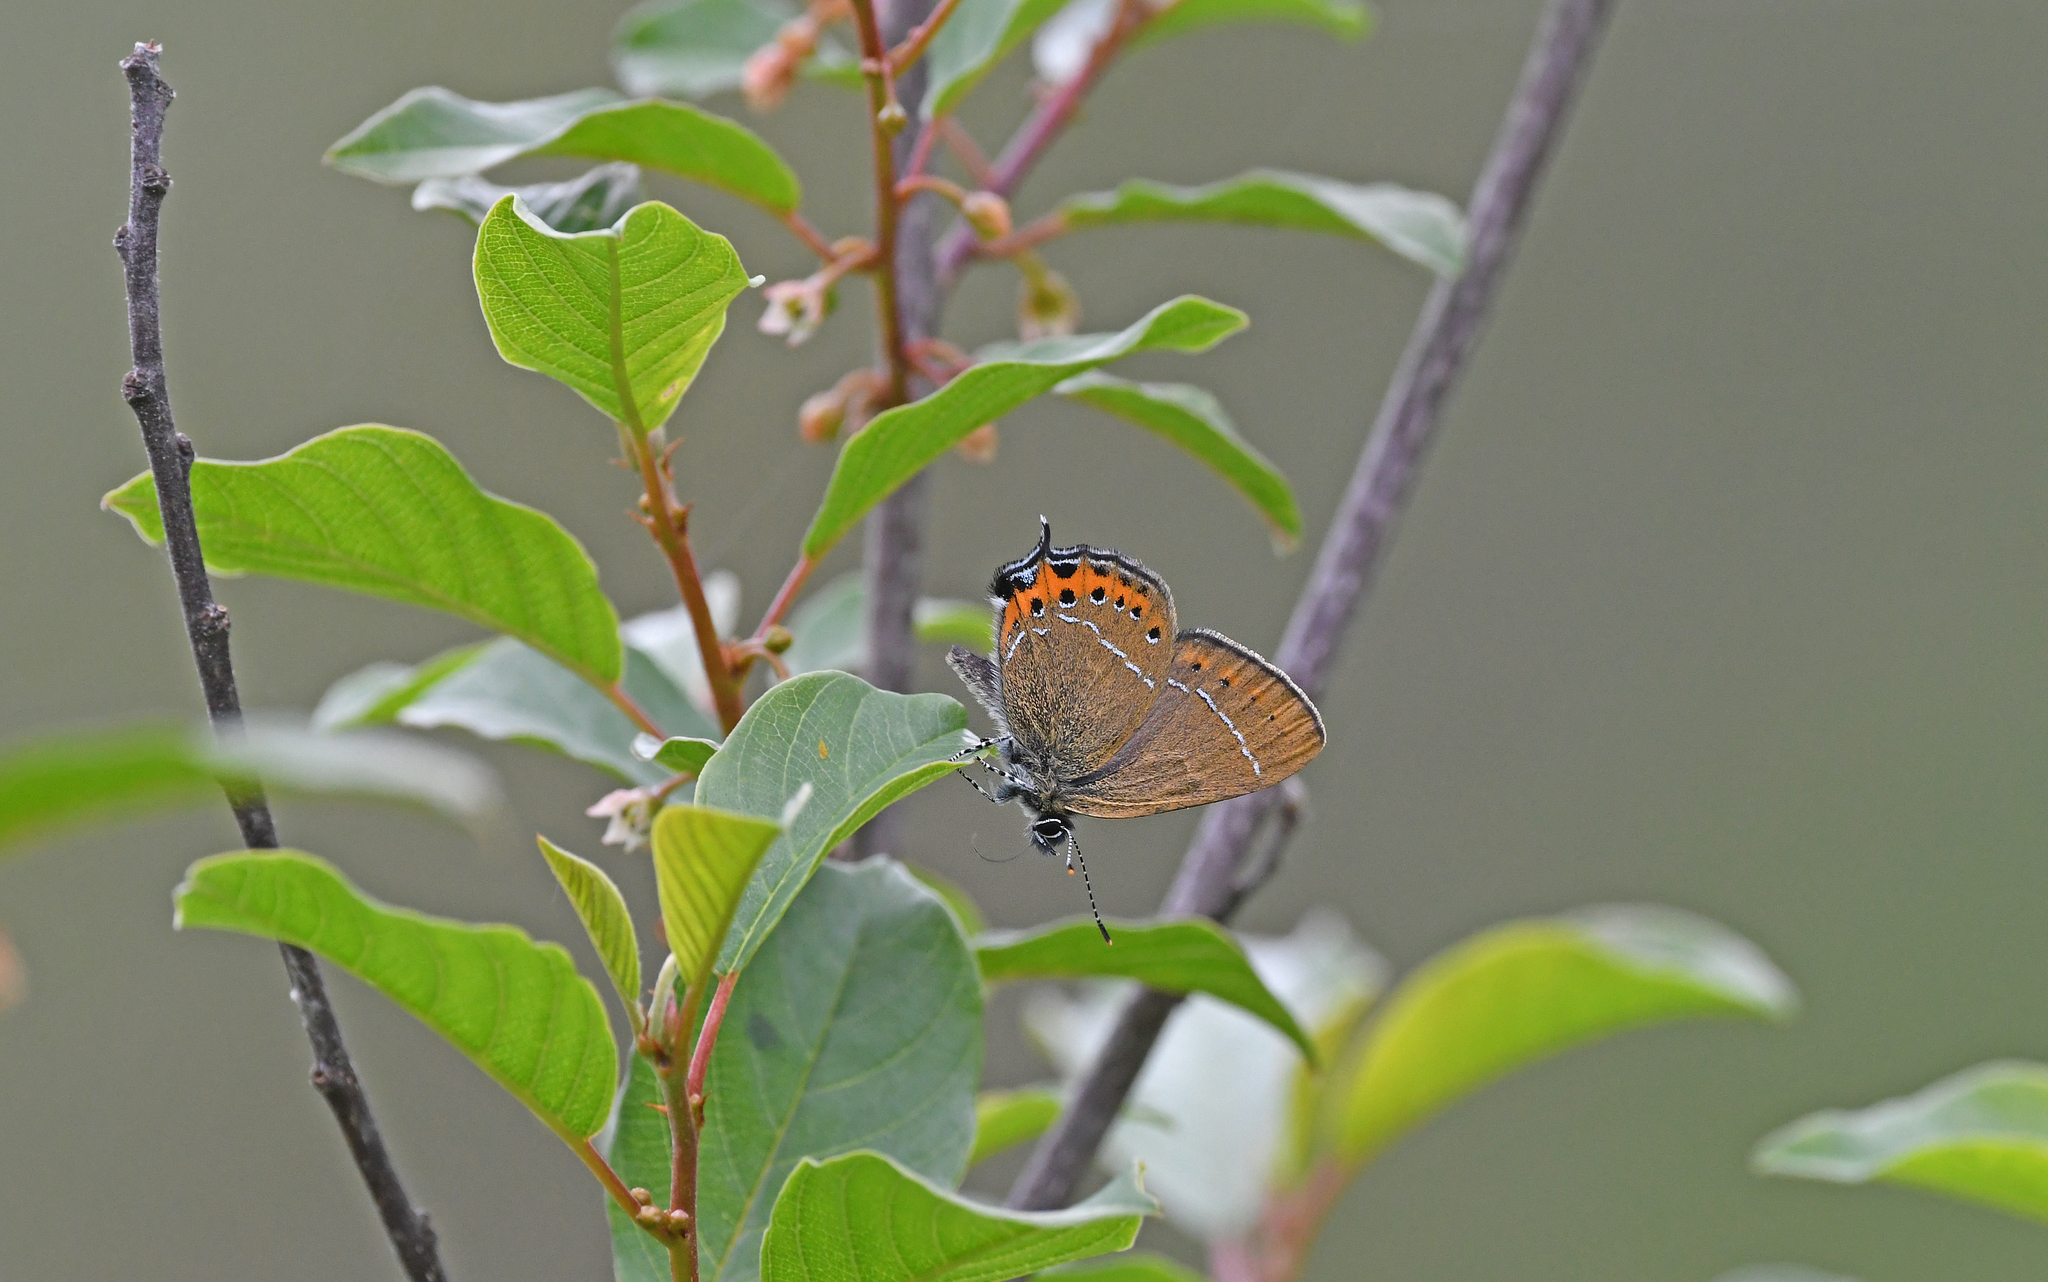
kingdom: Animalia
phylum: Arthropoda
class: Insecta
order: Lepidoptera
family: Lycaenidae
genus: Fixsenia
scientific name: Fixsenia pruni
